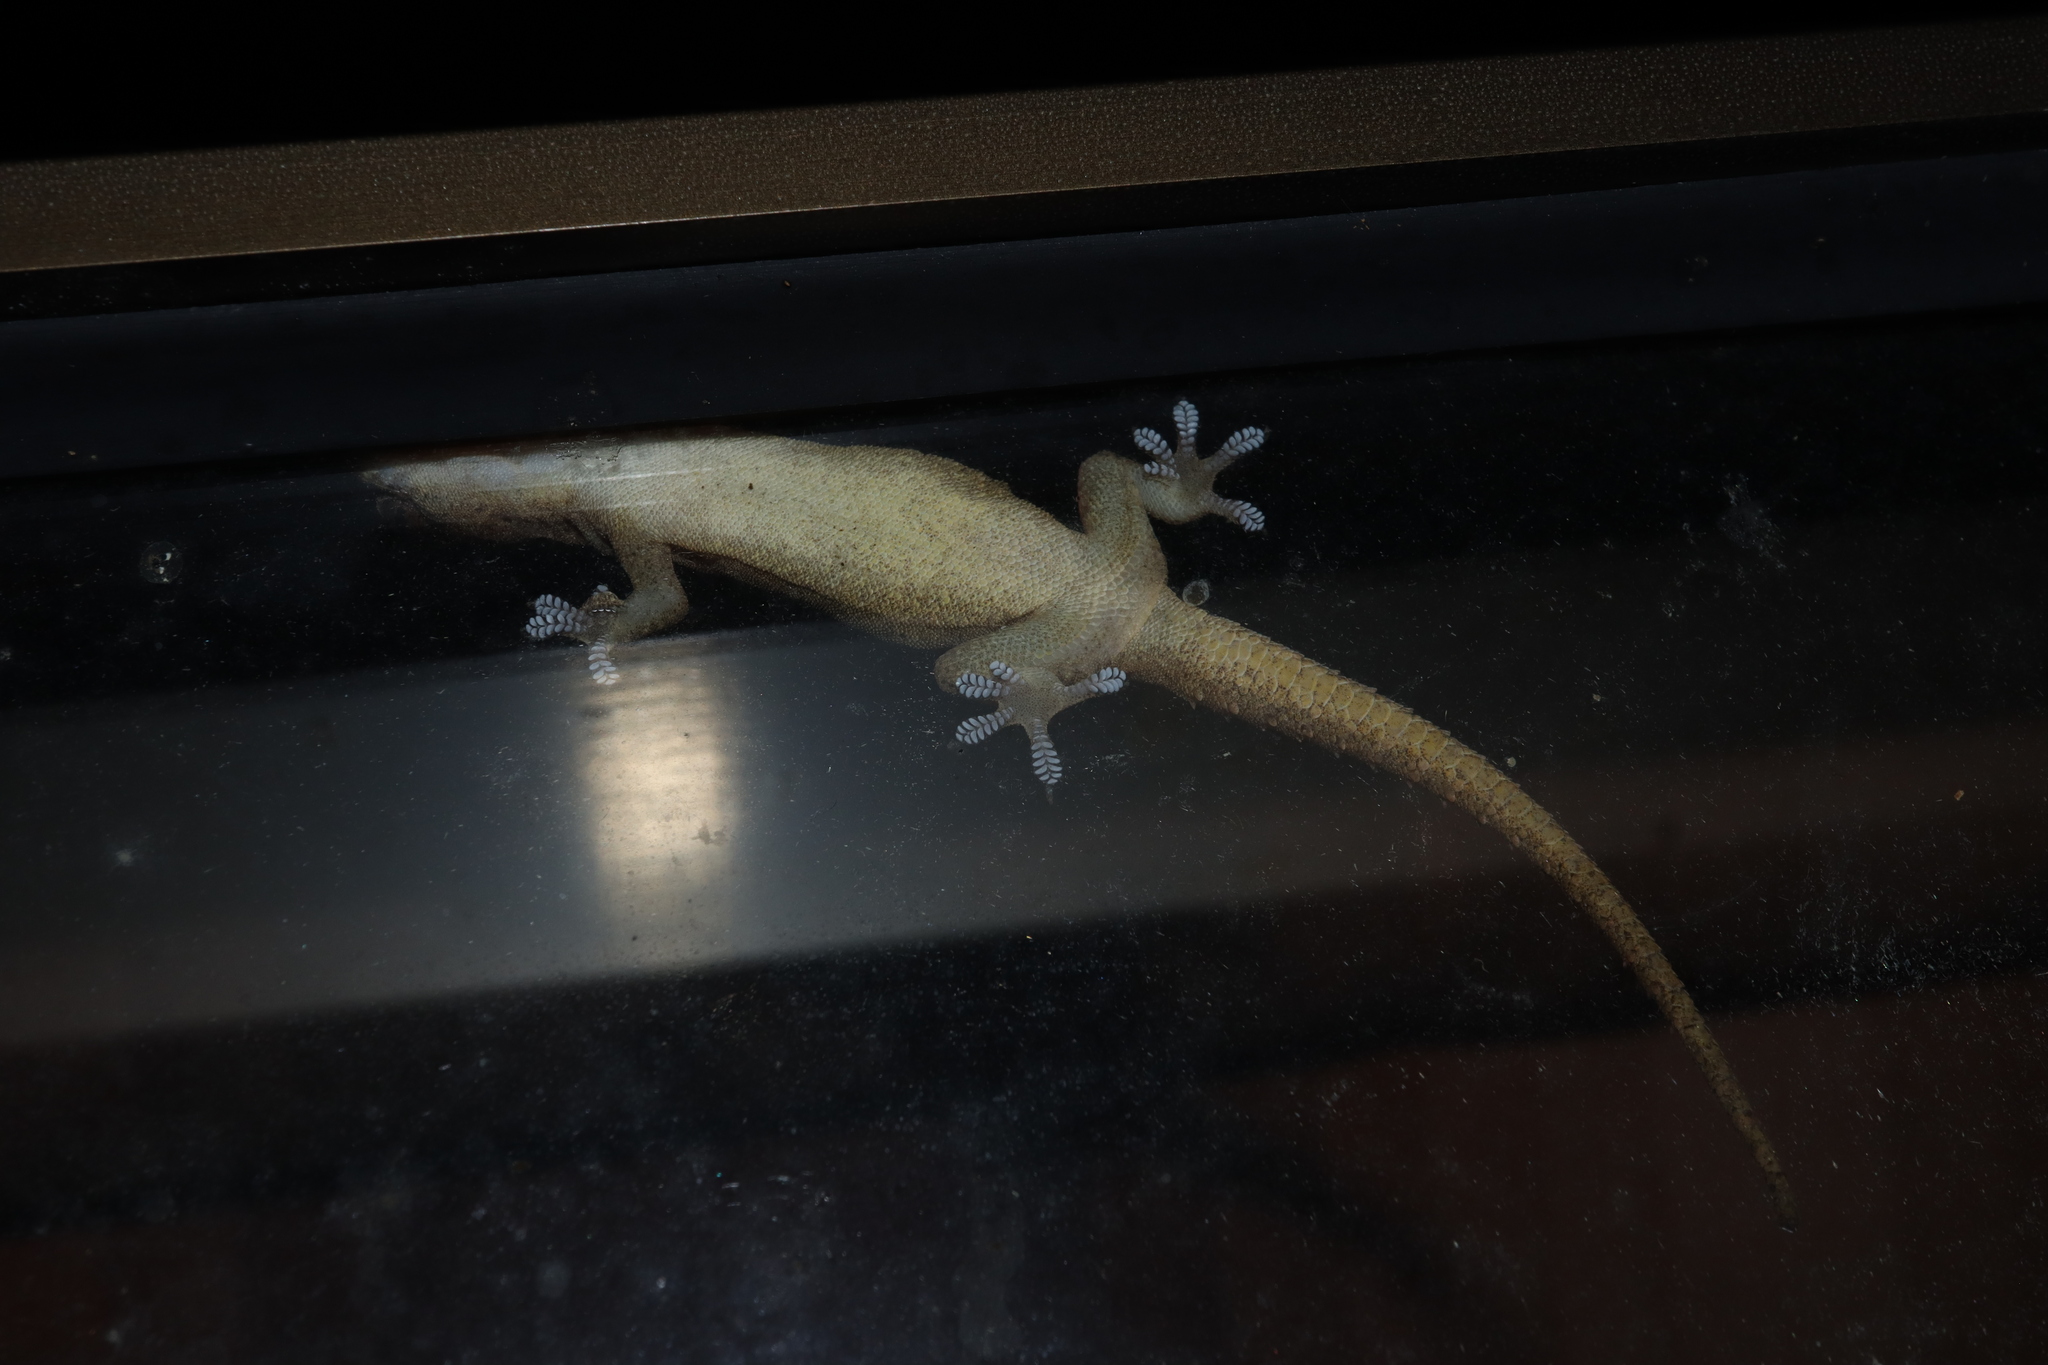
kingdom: Animalia
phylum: Chordata
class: Squamata
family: Gekkonidae
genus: Hemidactylus
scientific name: Hemidactylus frenatus
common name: Common house gecko
